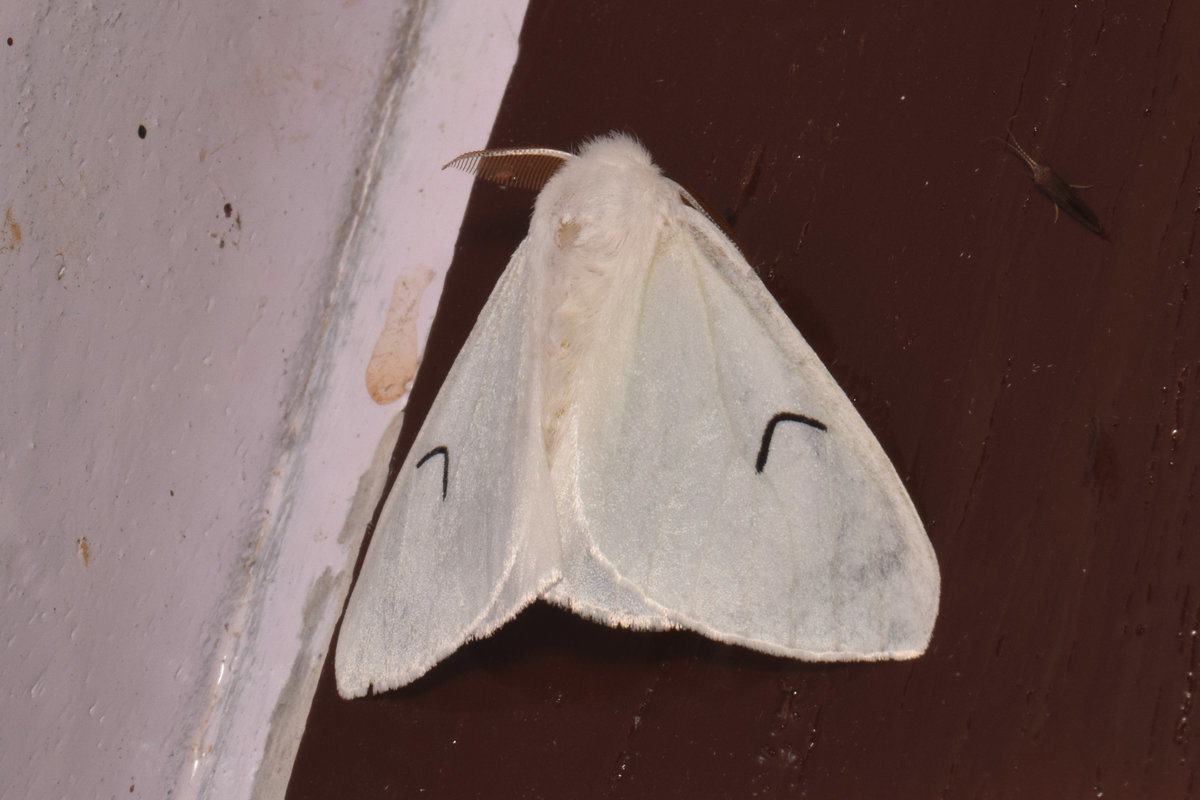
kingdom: Animalia
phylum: Arthropoda
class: Insecta
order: Lepidoptera
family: Erebidae
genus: Arctornis
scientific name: Arctornis l-nigrum
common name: Black v moth
